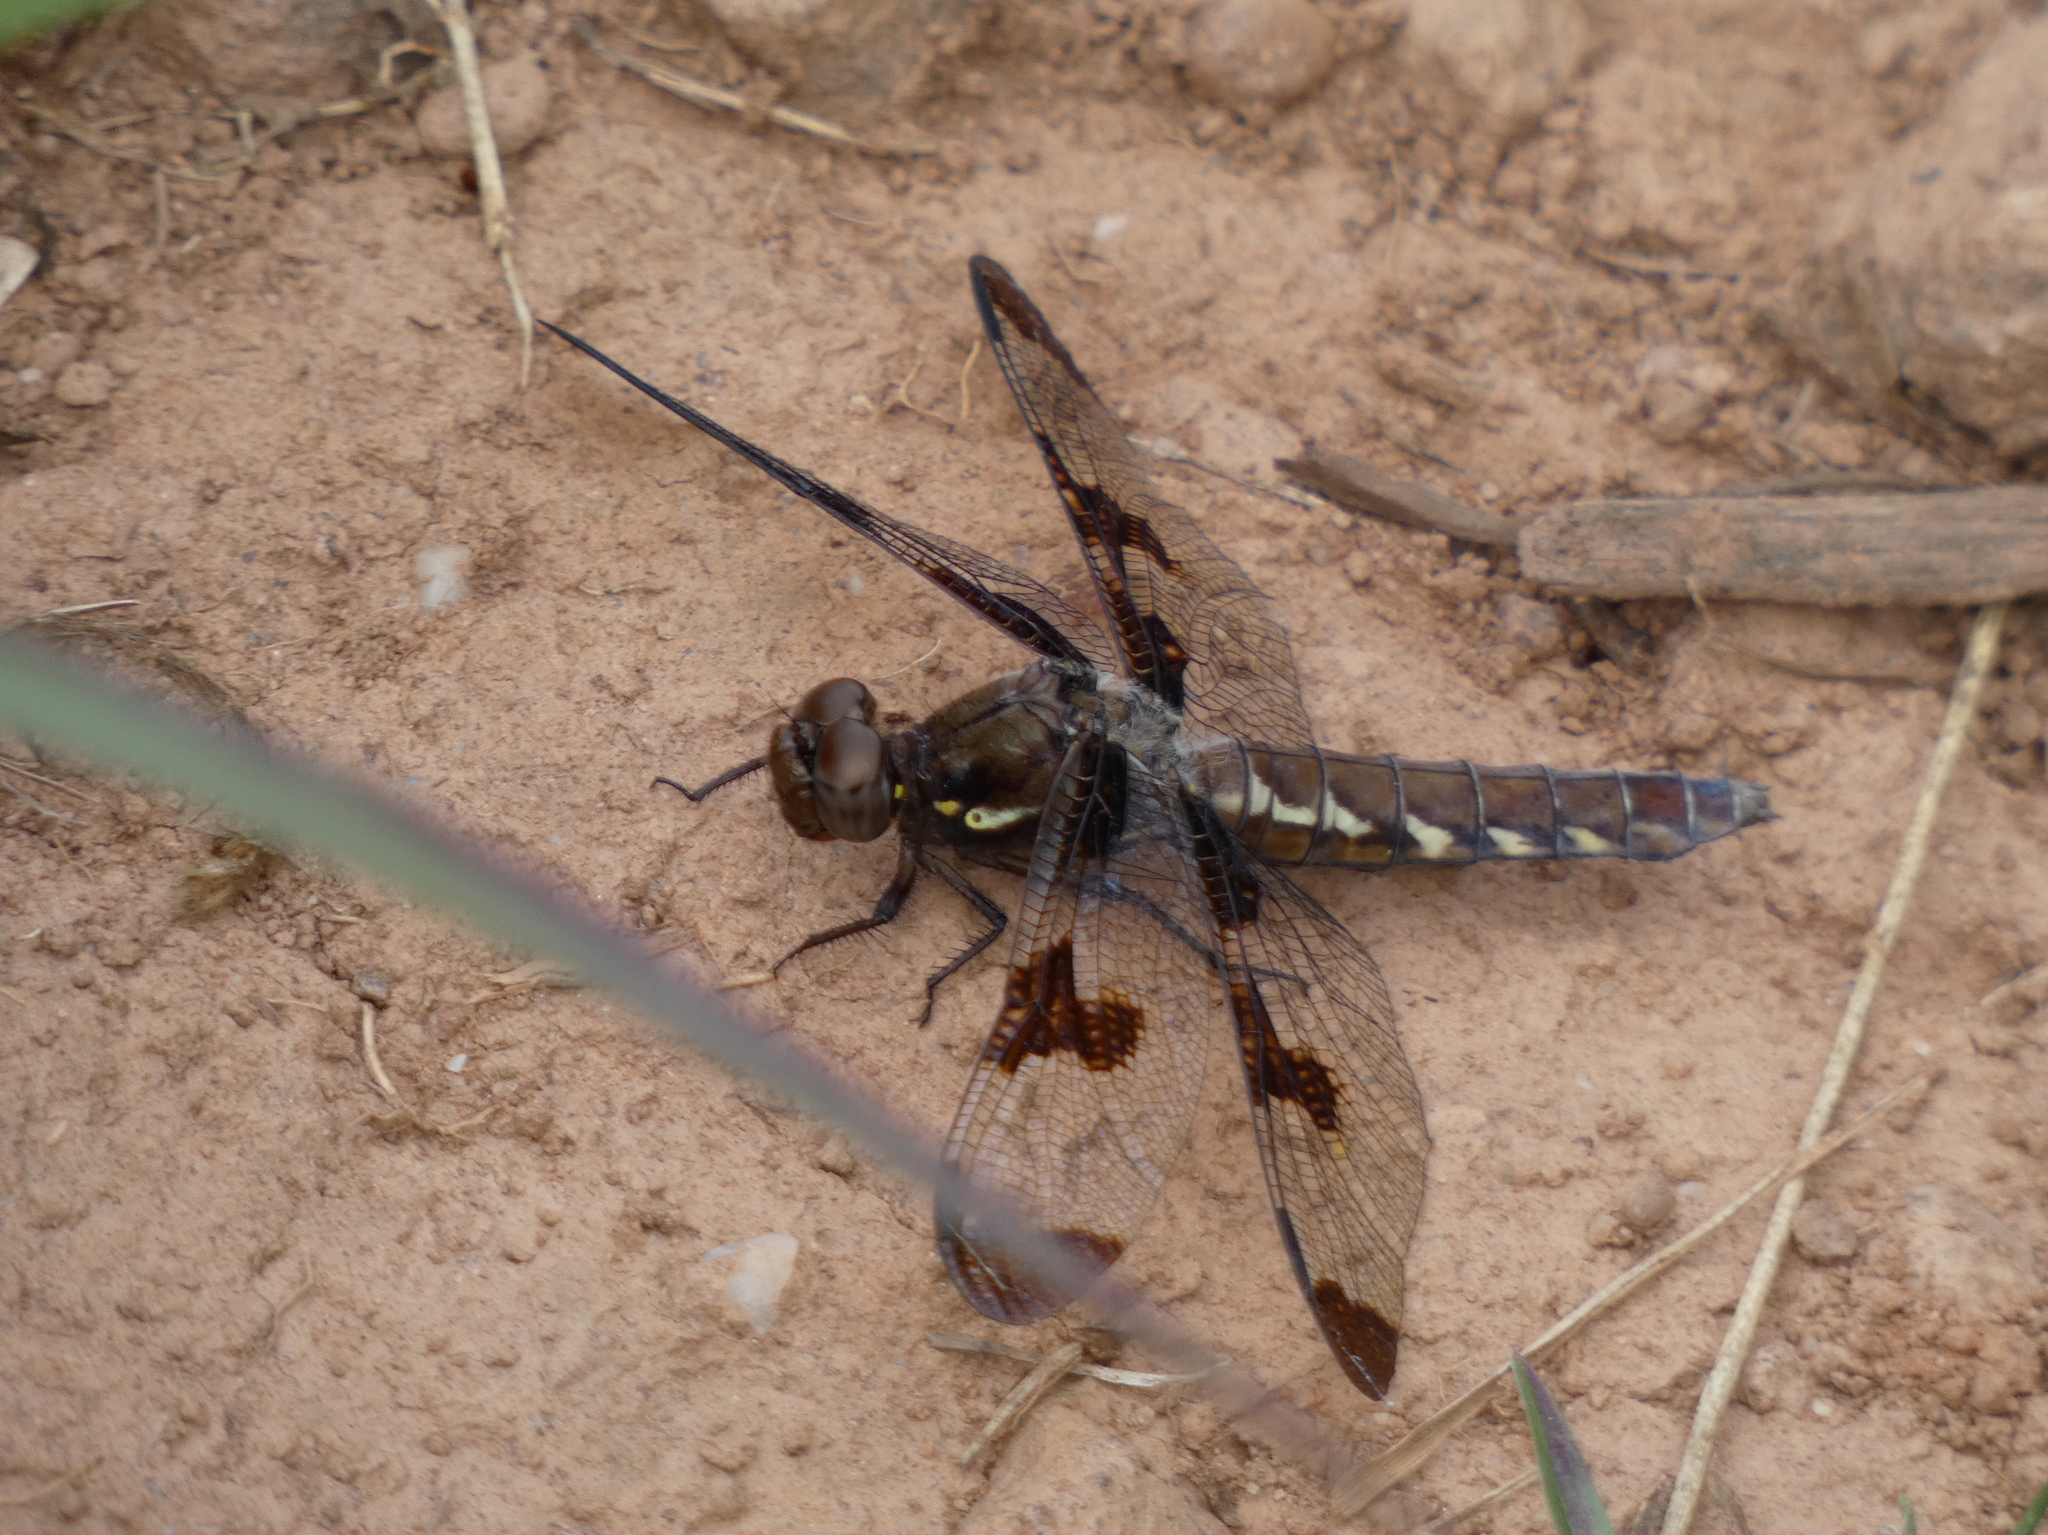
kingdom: Animalia
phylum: Arthropoda
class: Insecta
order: Odonata
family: Libellulidae
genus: Plathemis
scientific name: Plathemis lydia
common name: Common whitetail
